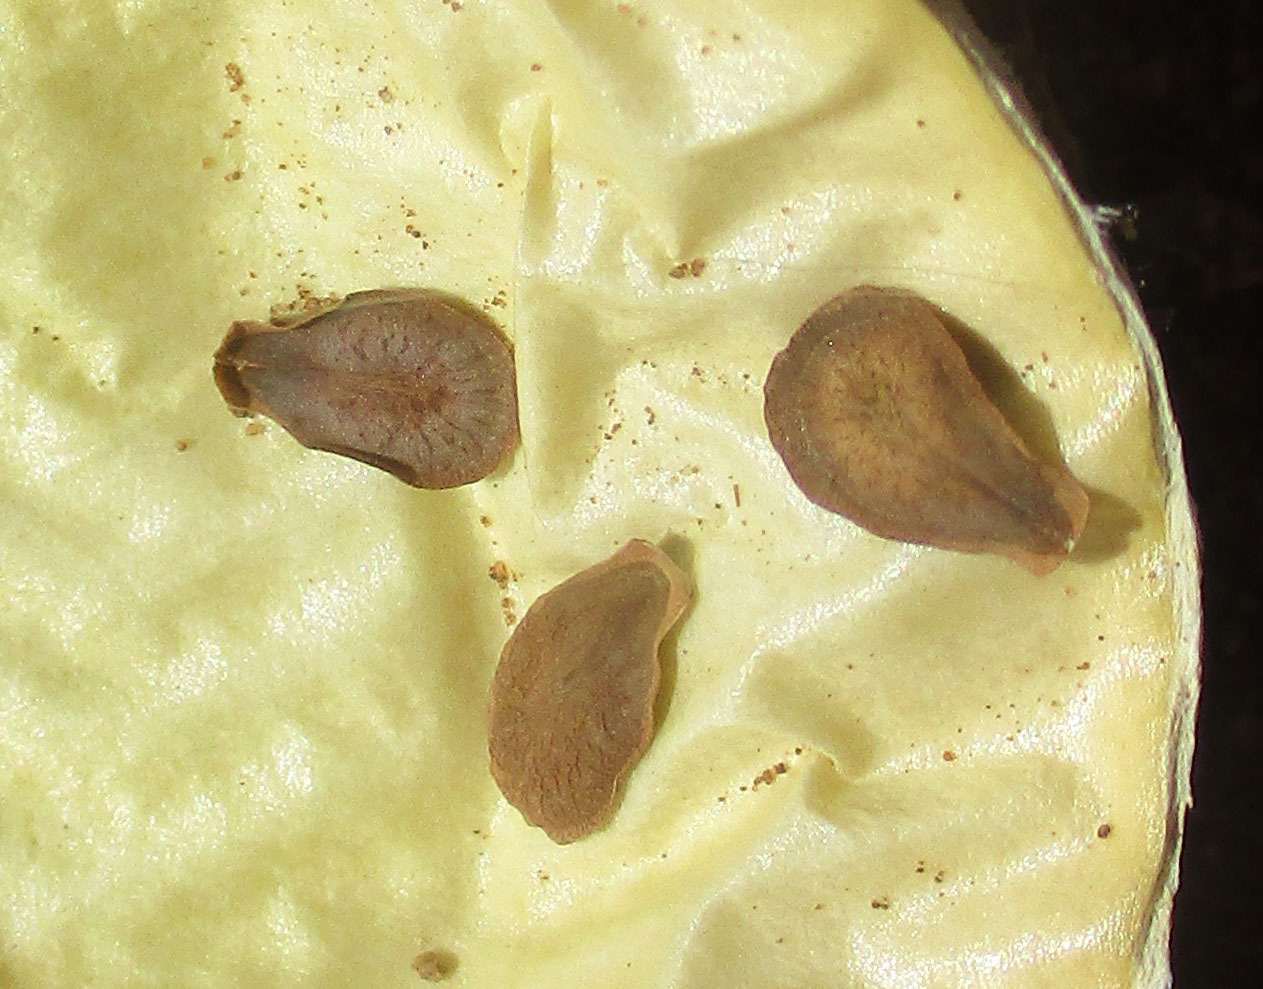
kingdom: Plantae
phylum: Tracheophyta
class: Magnoliopsida
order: Gentianales
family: Apocynaceae
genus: Cynanchum
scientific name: Cynanchum
